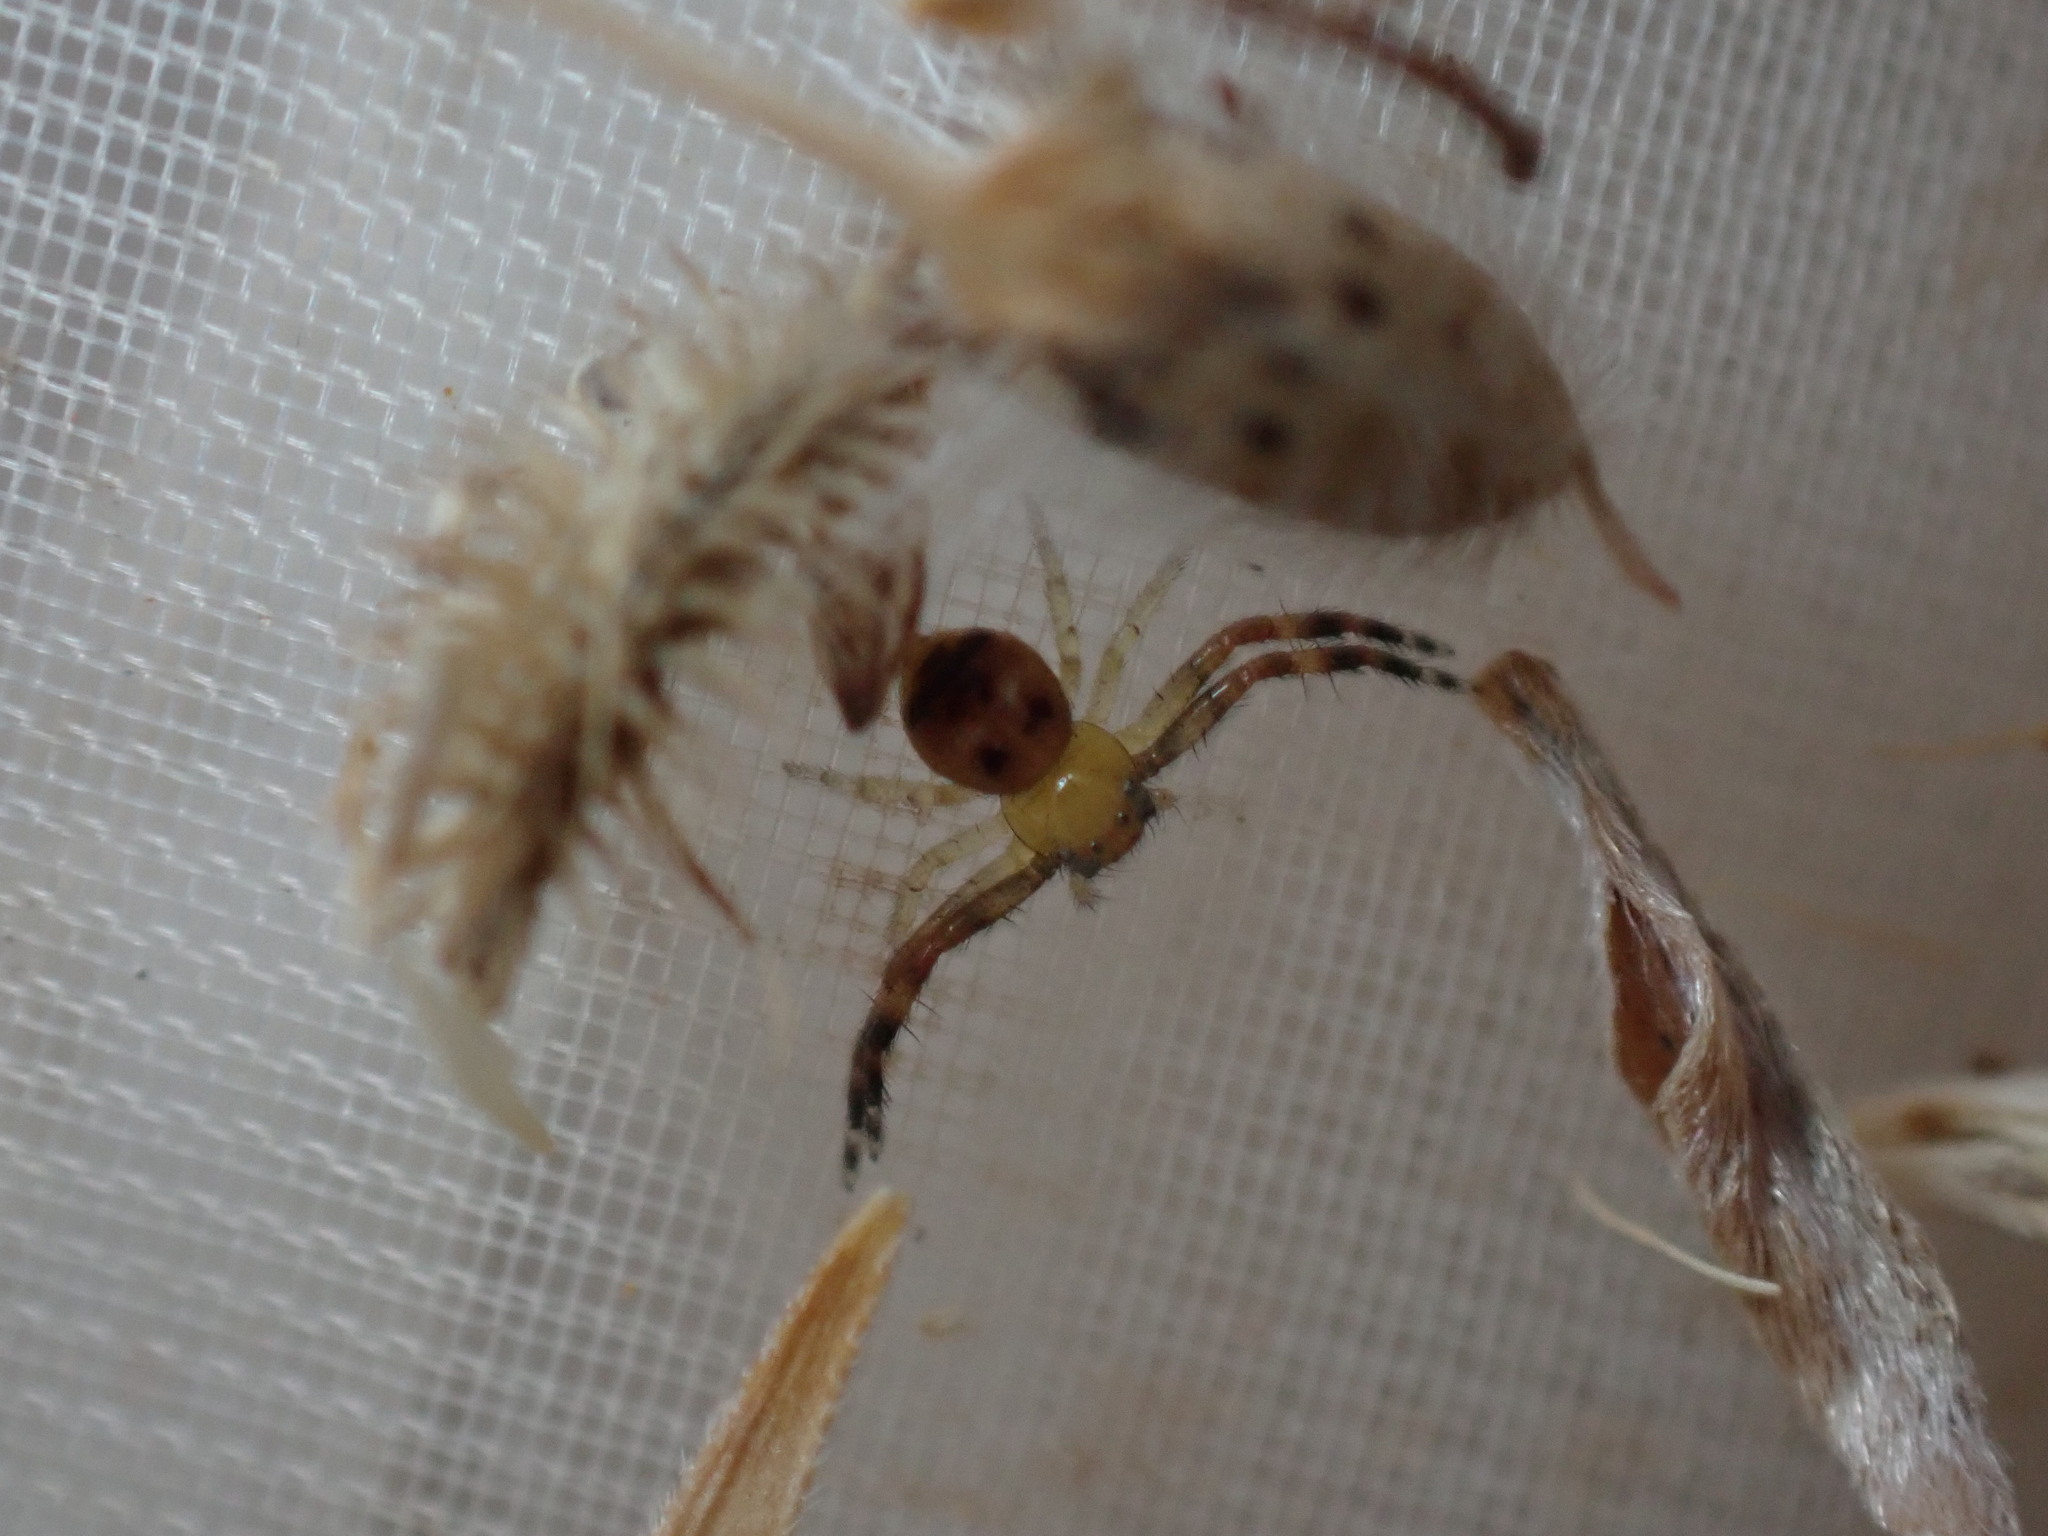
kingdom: Animalia
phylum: Arthropoda
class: Arachnida
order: Araneae
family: Thomisidae
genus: Synema
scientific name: Synema globosum
